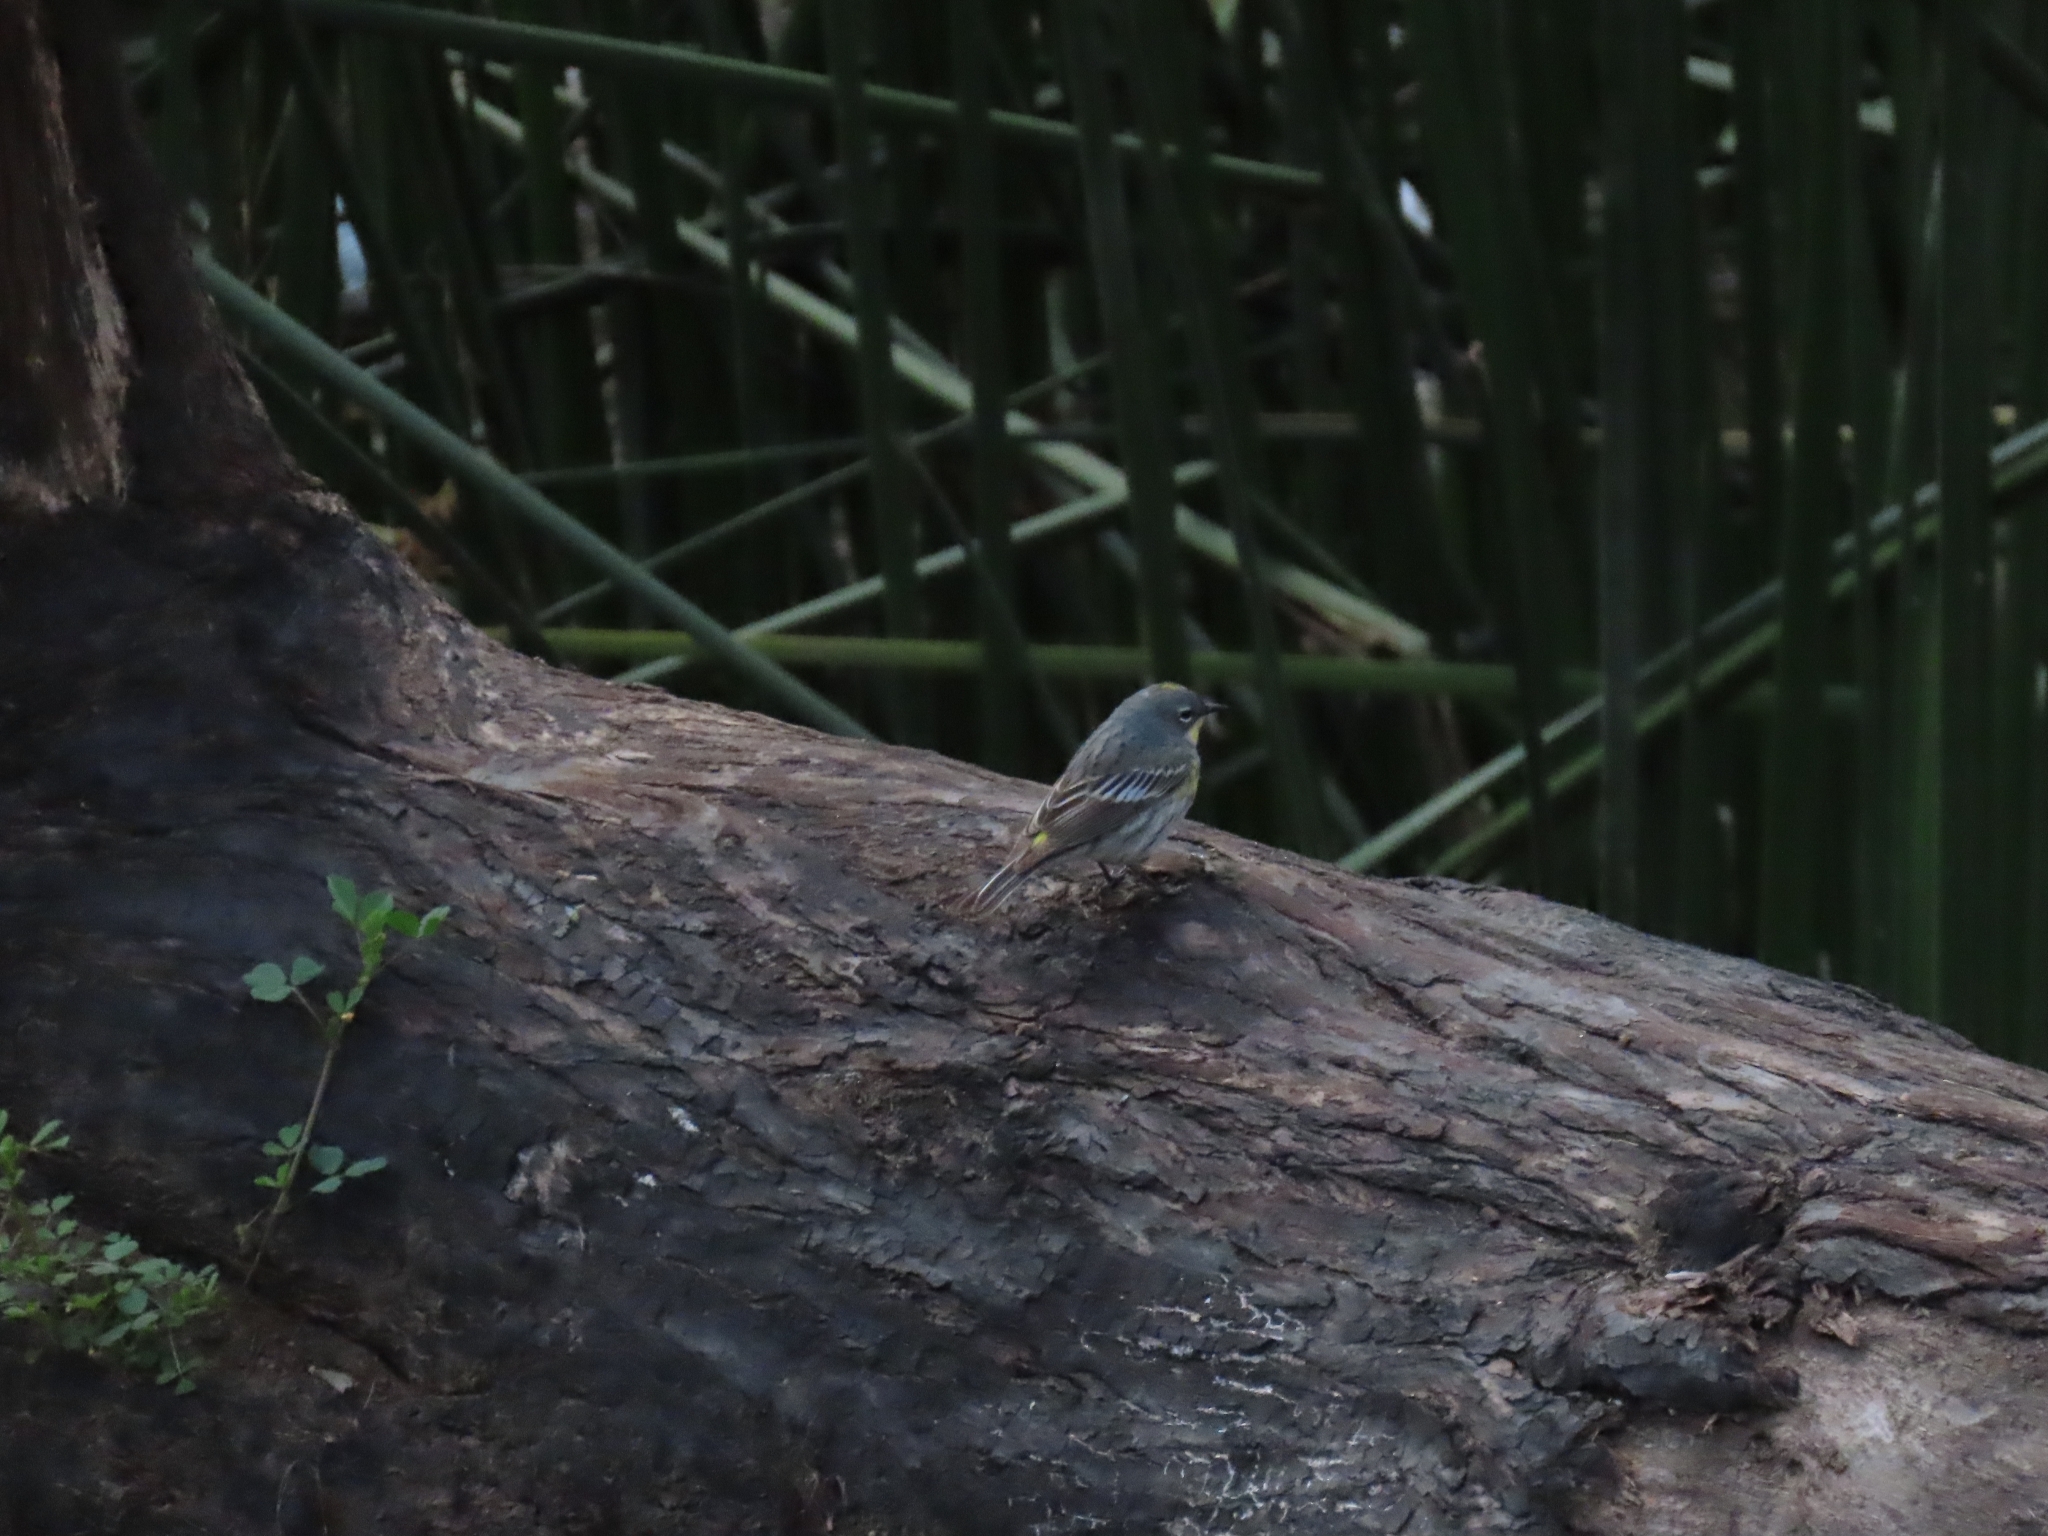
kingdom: Animalia
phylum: Chordata
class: Aves
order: Passeriformes
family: Parulidae
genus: Setophaga
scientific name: Setophaga coronata
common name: Myrtle warbler
